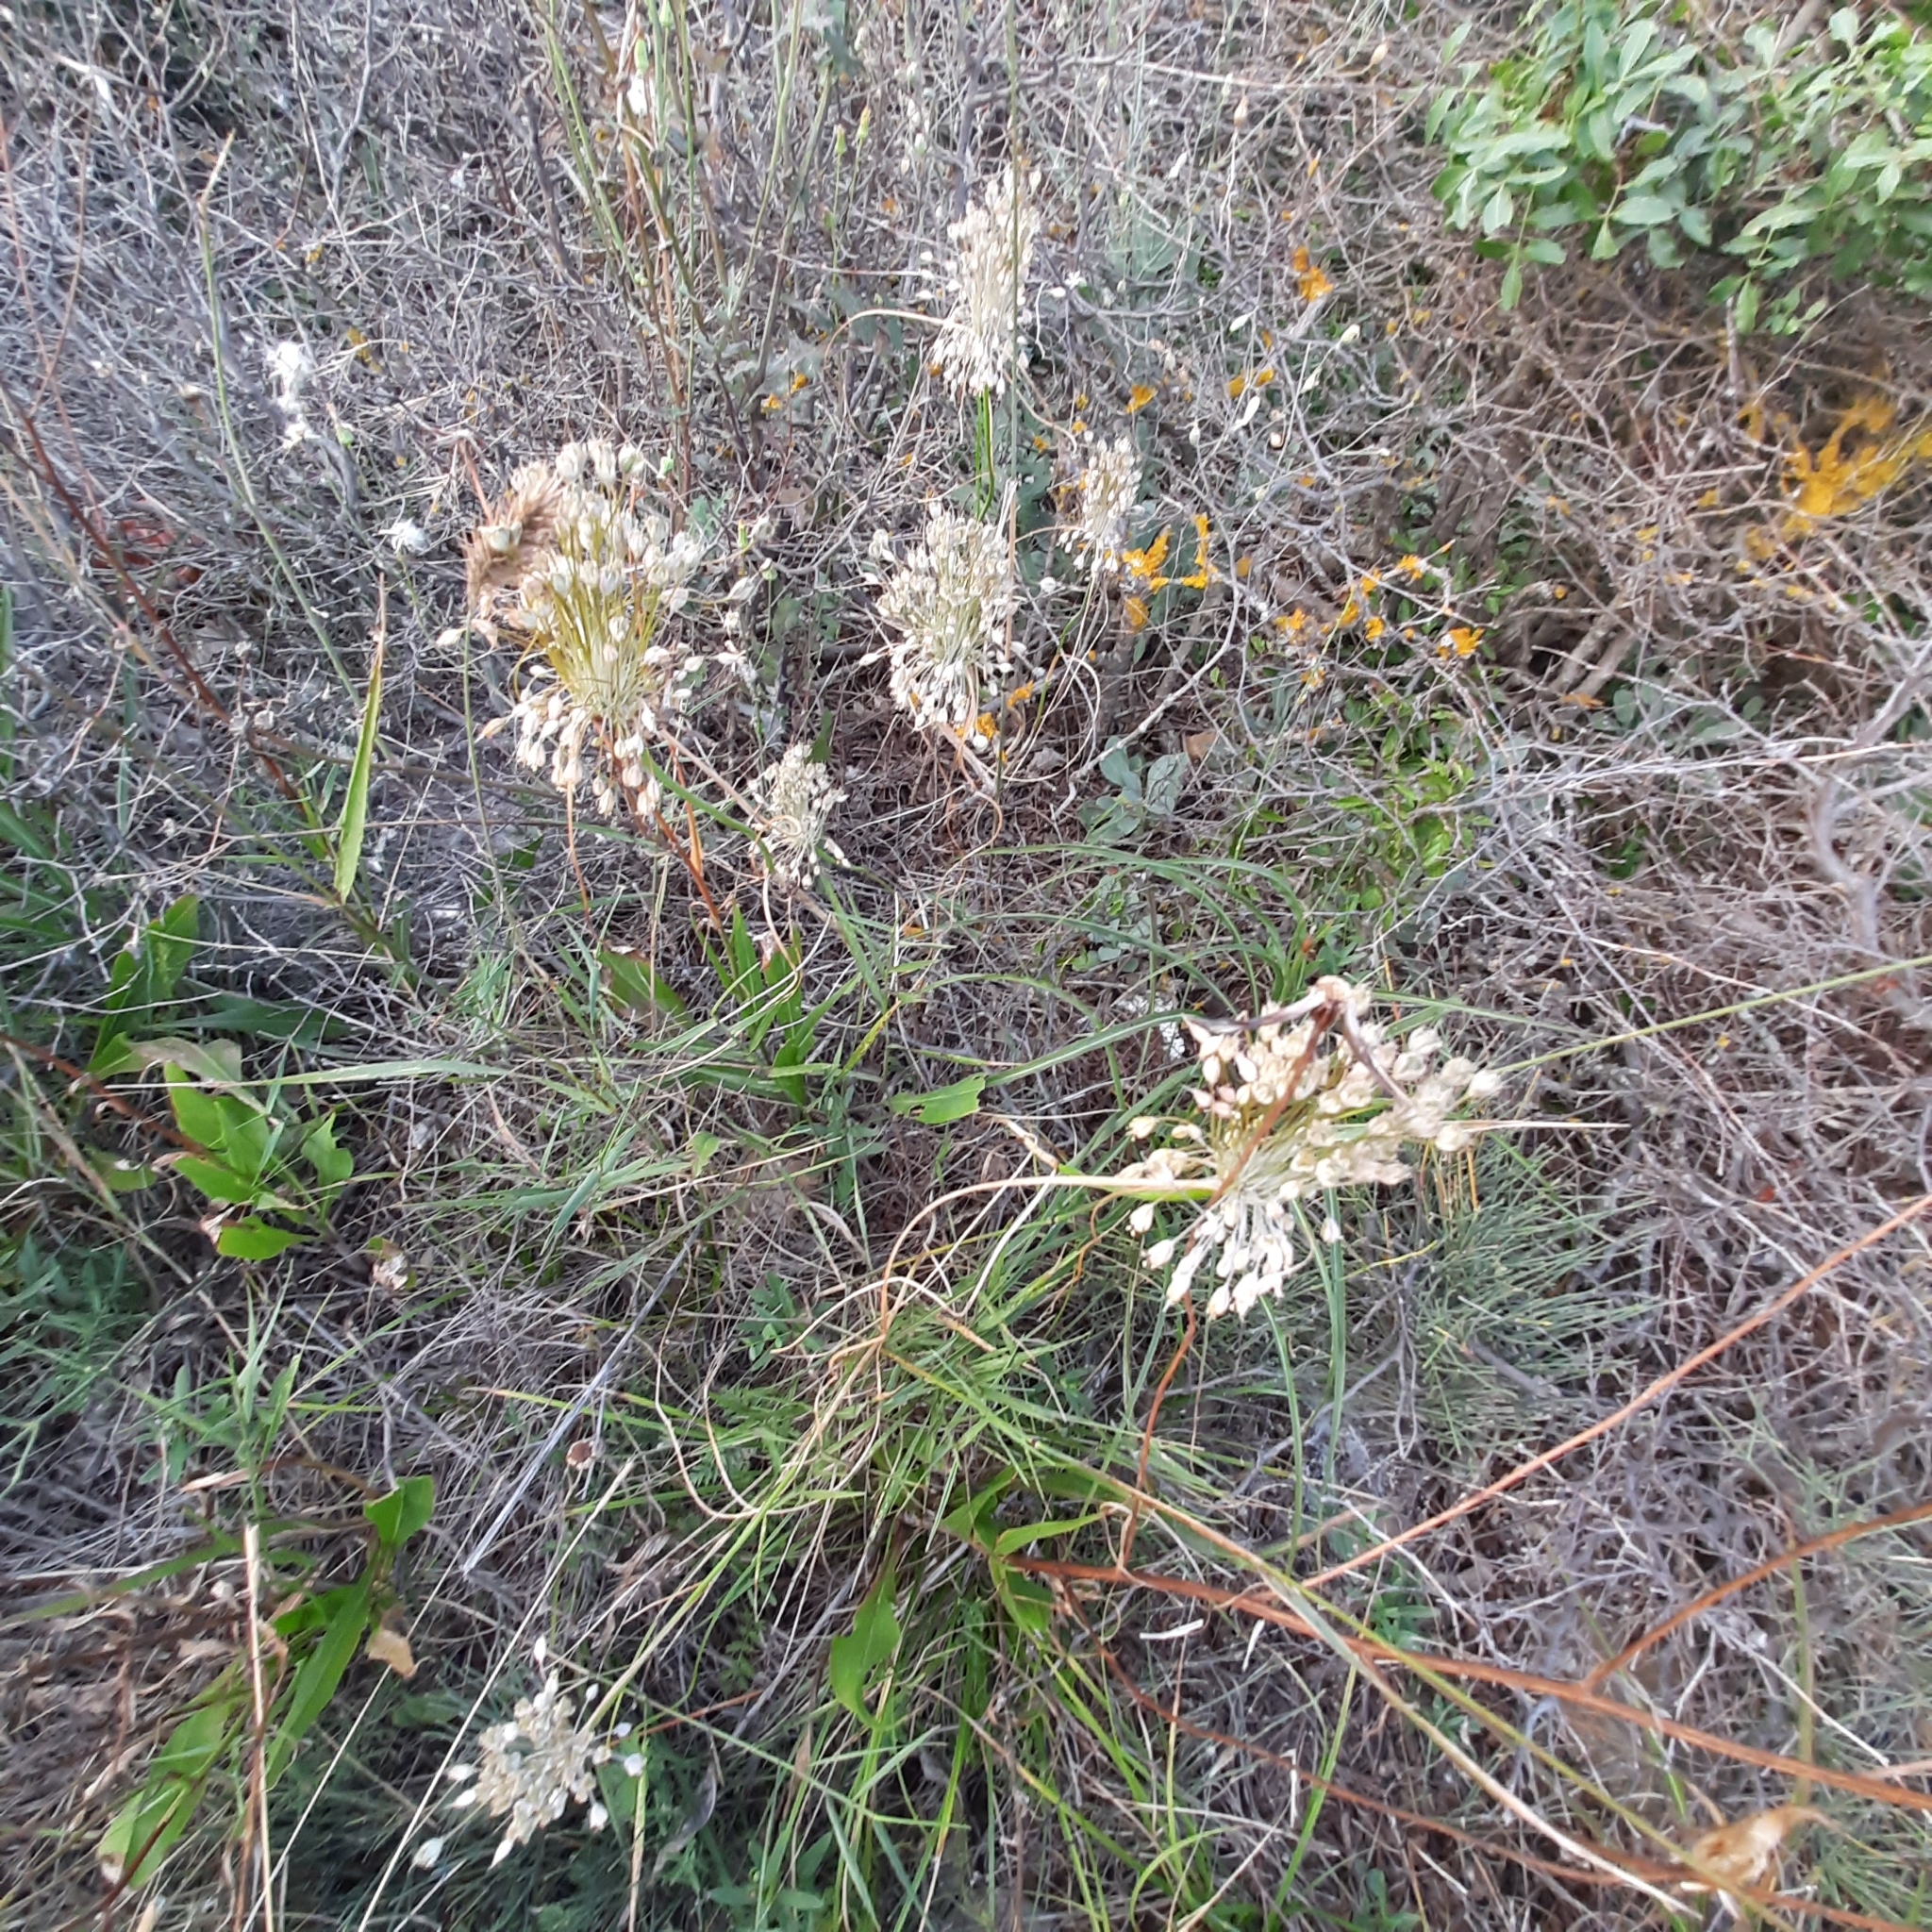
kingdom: Plantae
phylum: Tracheophyta
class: Liliopsida
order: Asparagales
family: Amaryllidaceae
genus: Allium
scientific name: Allium flavum
